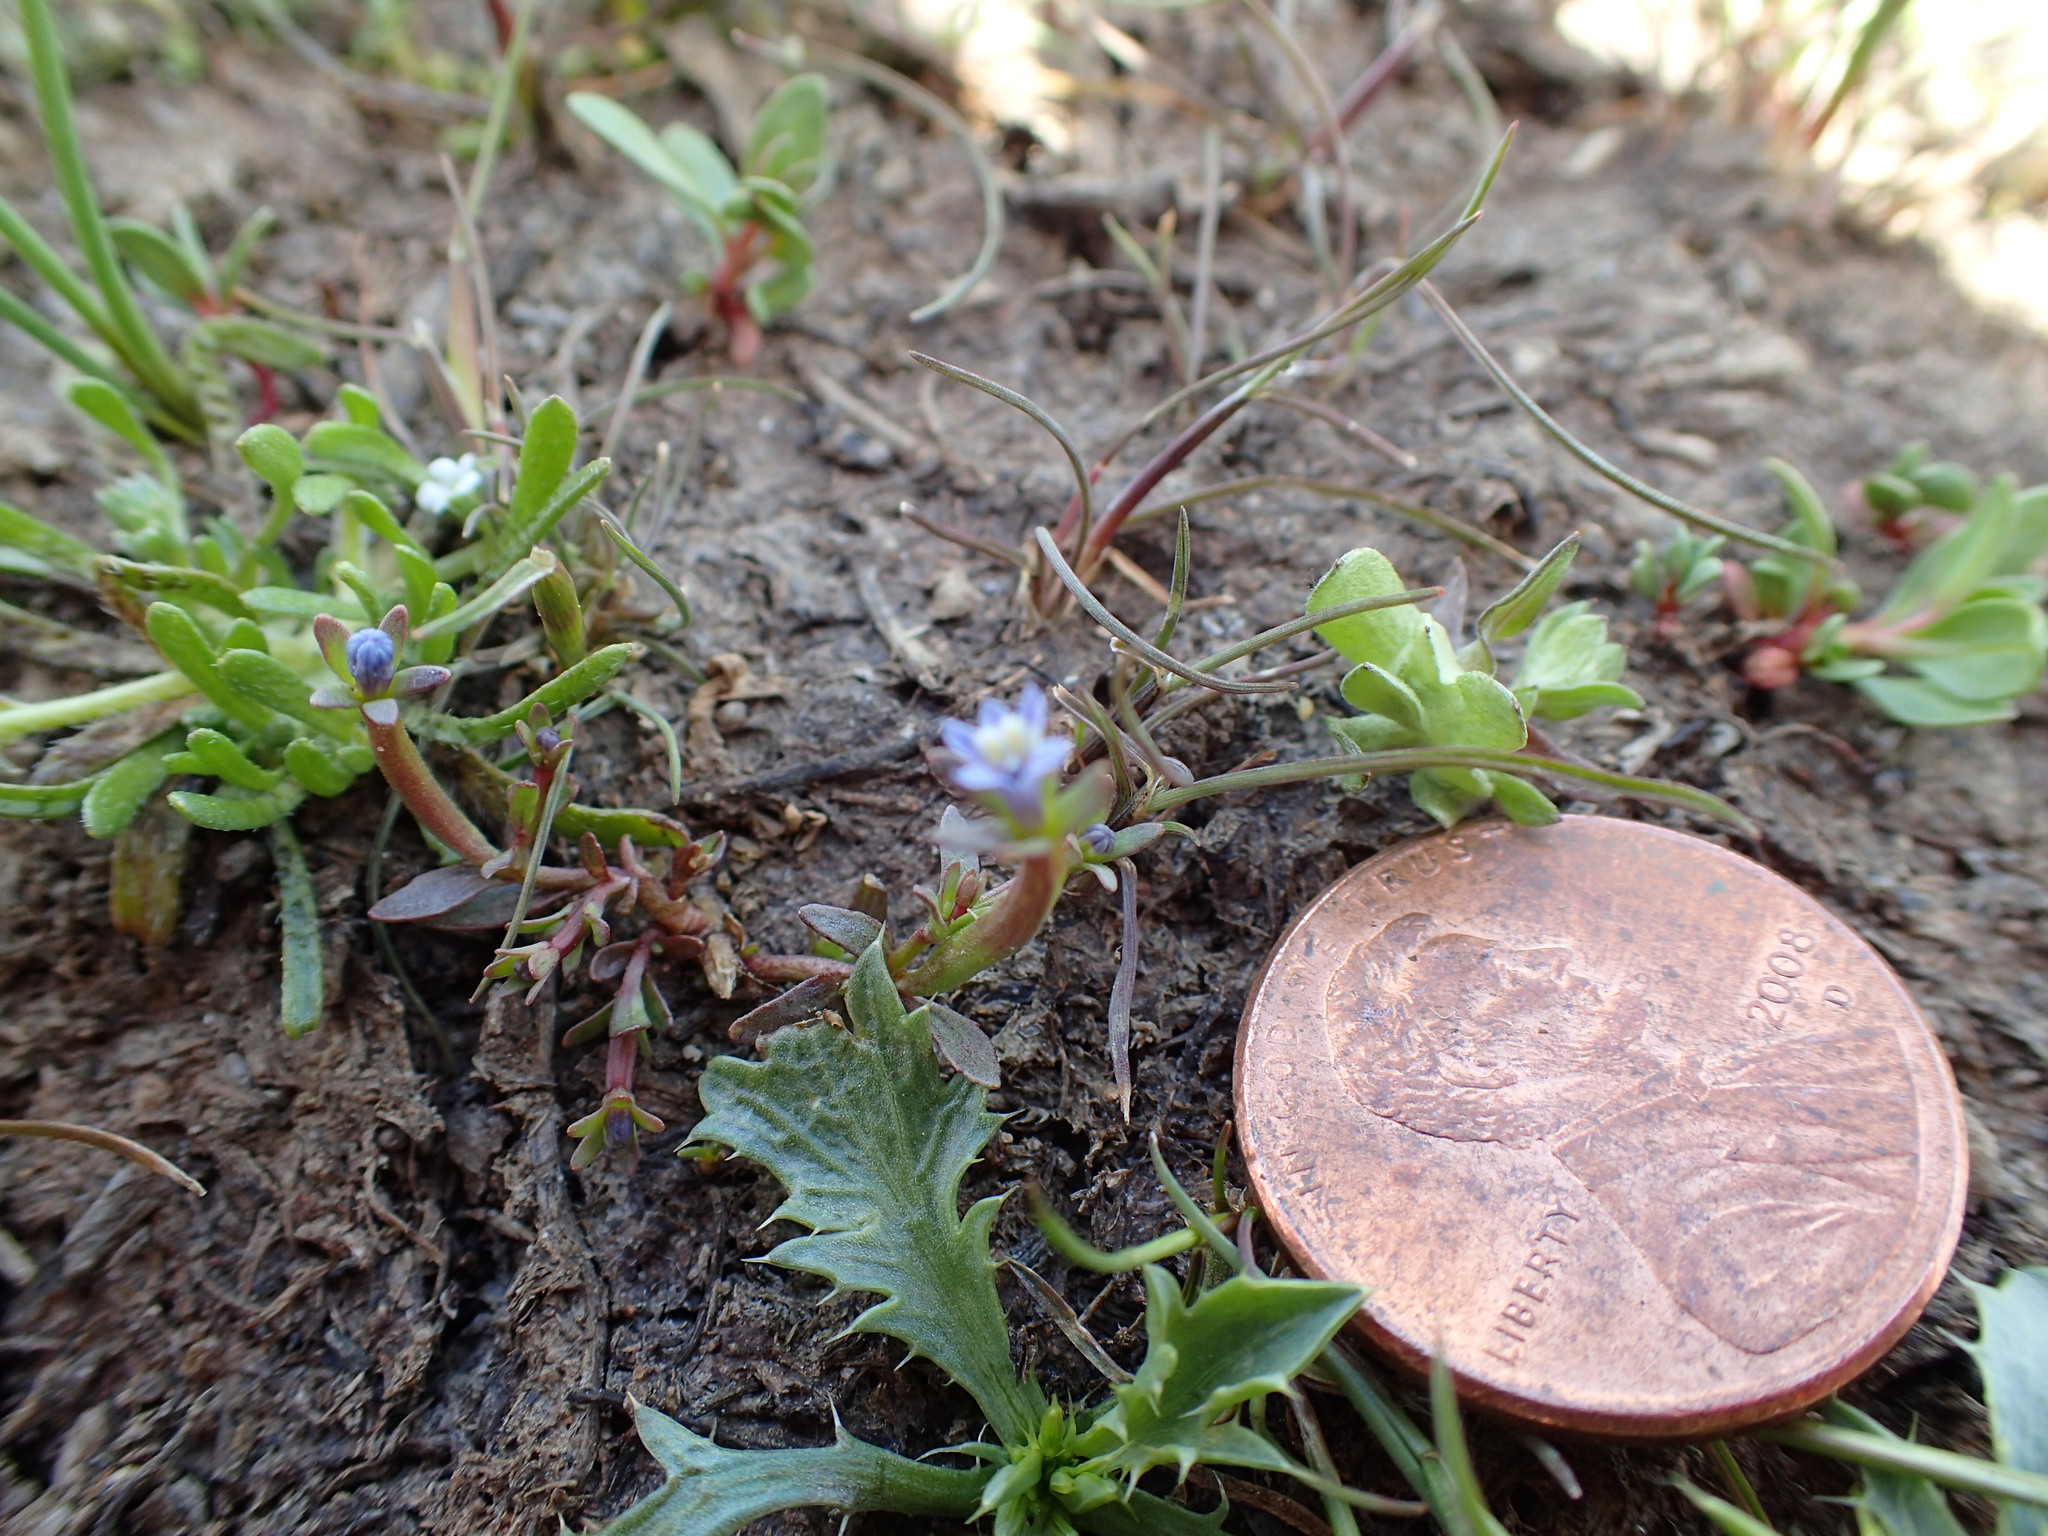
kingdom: Plantae
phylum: Tracheophyta
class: Magnoliopsida
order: Asterales
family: Campanulaceae
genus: Downingia
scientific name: Downingia pusilla
